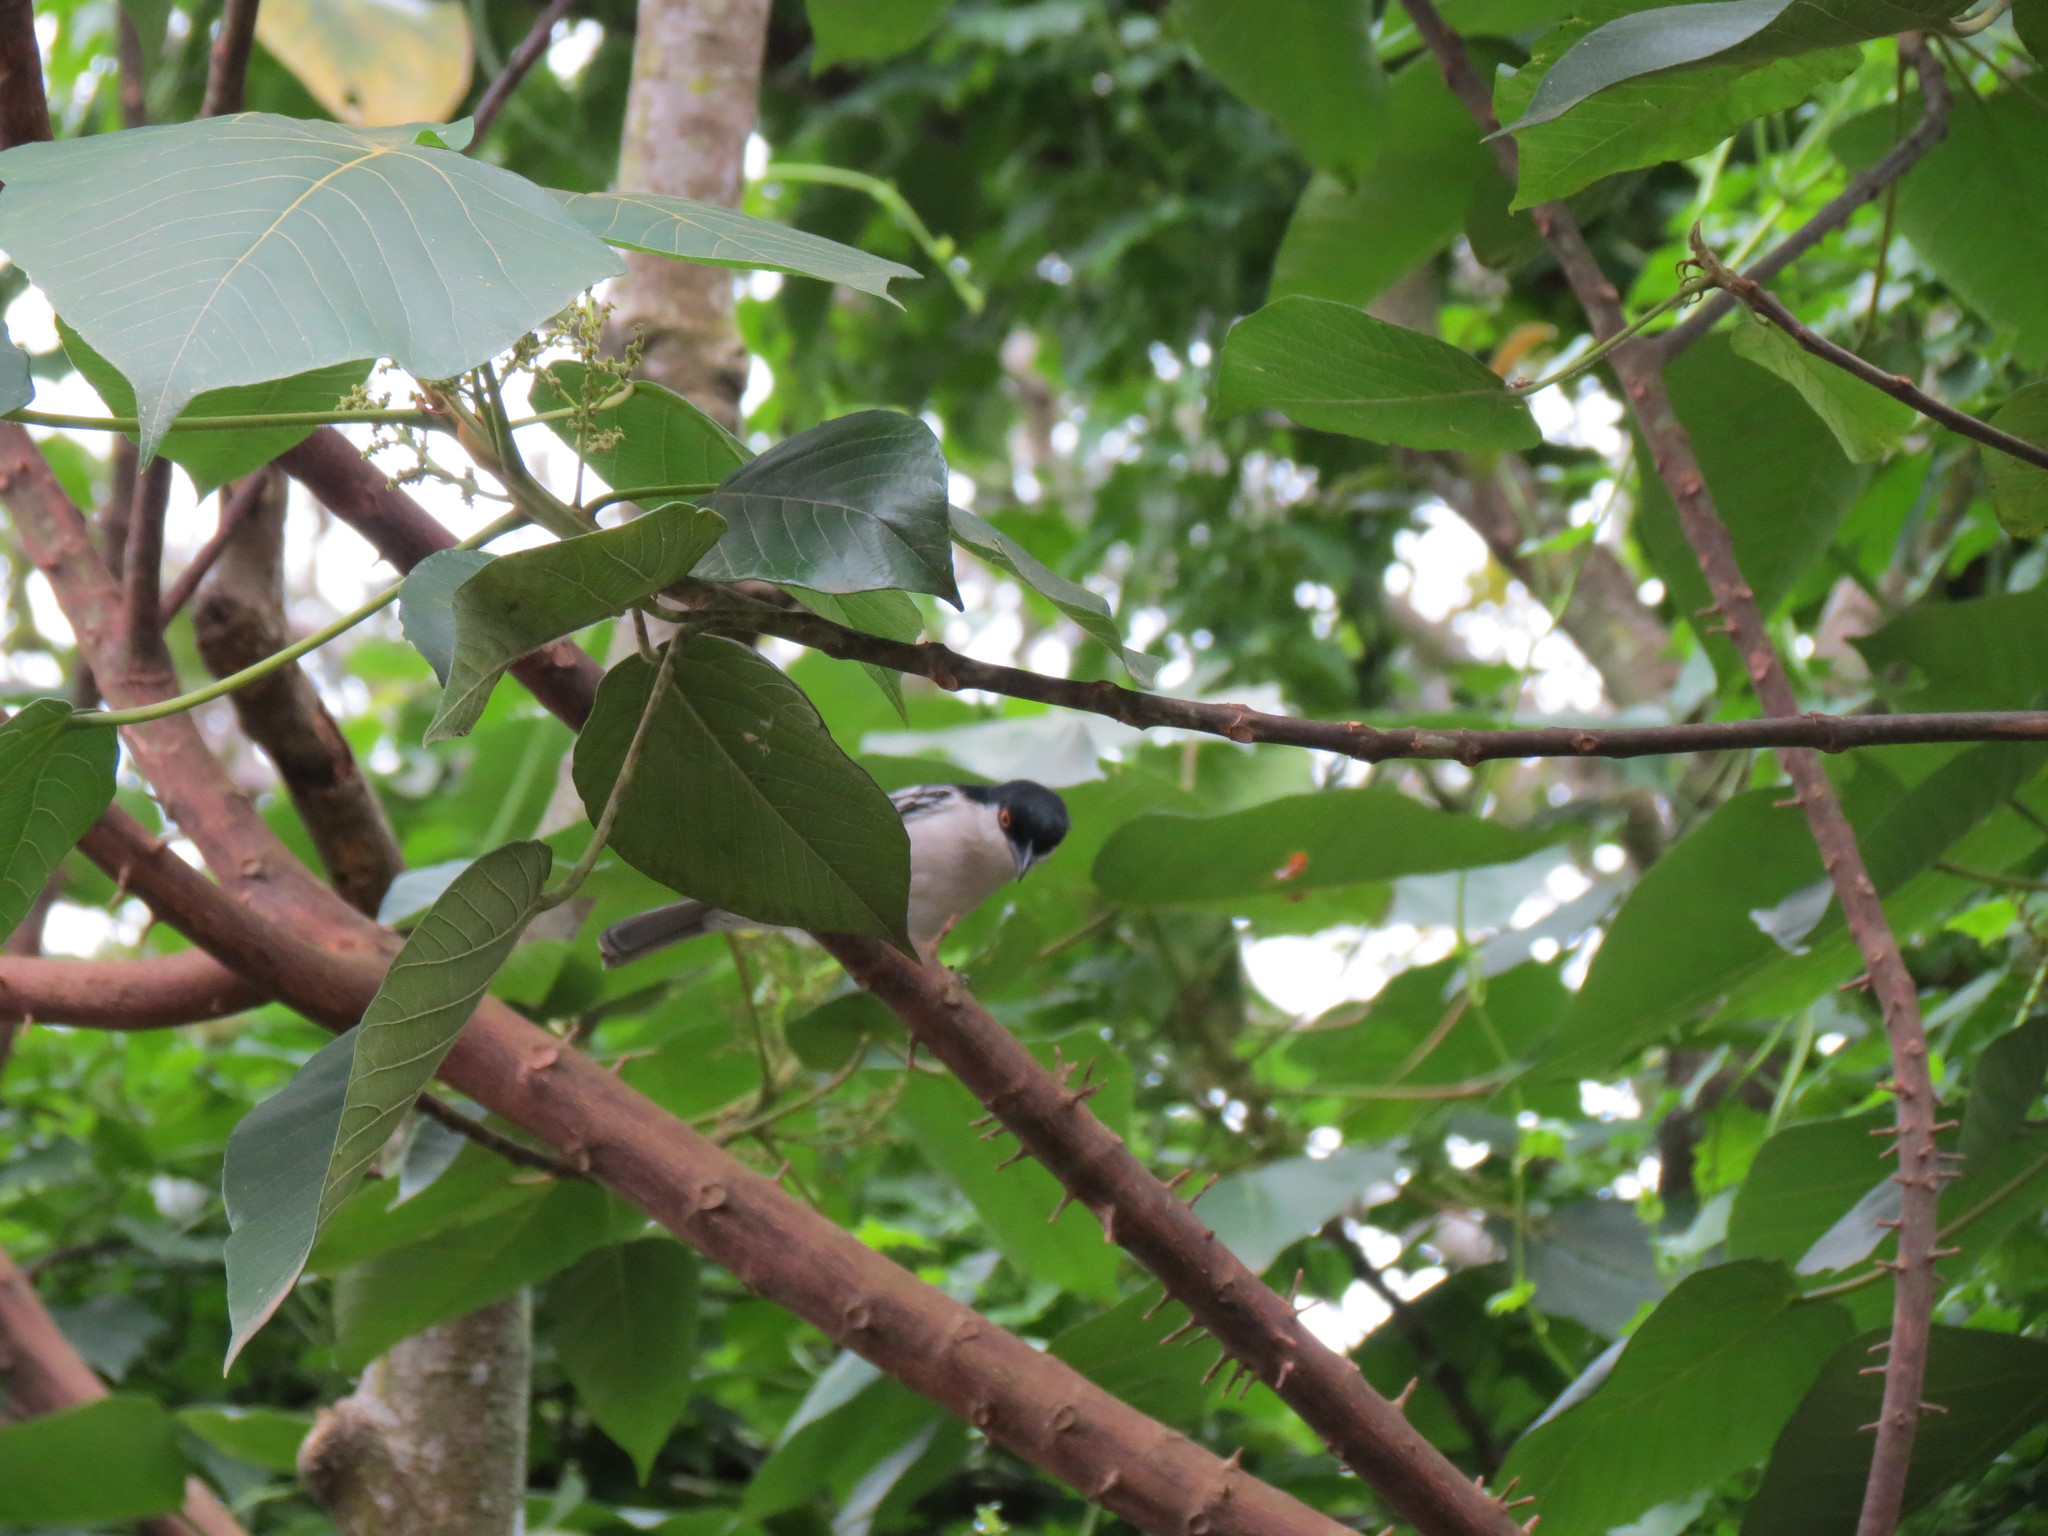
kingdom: Animalia
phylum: Chordata
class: Aves
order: Passeriformes
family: Malaconotidae
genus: Dryoscopus
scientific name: Dryoscopus cubla
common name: Black-backed puffback
